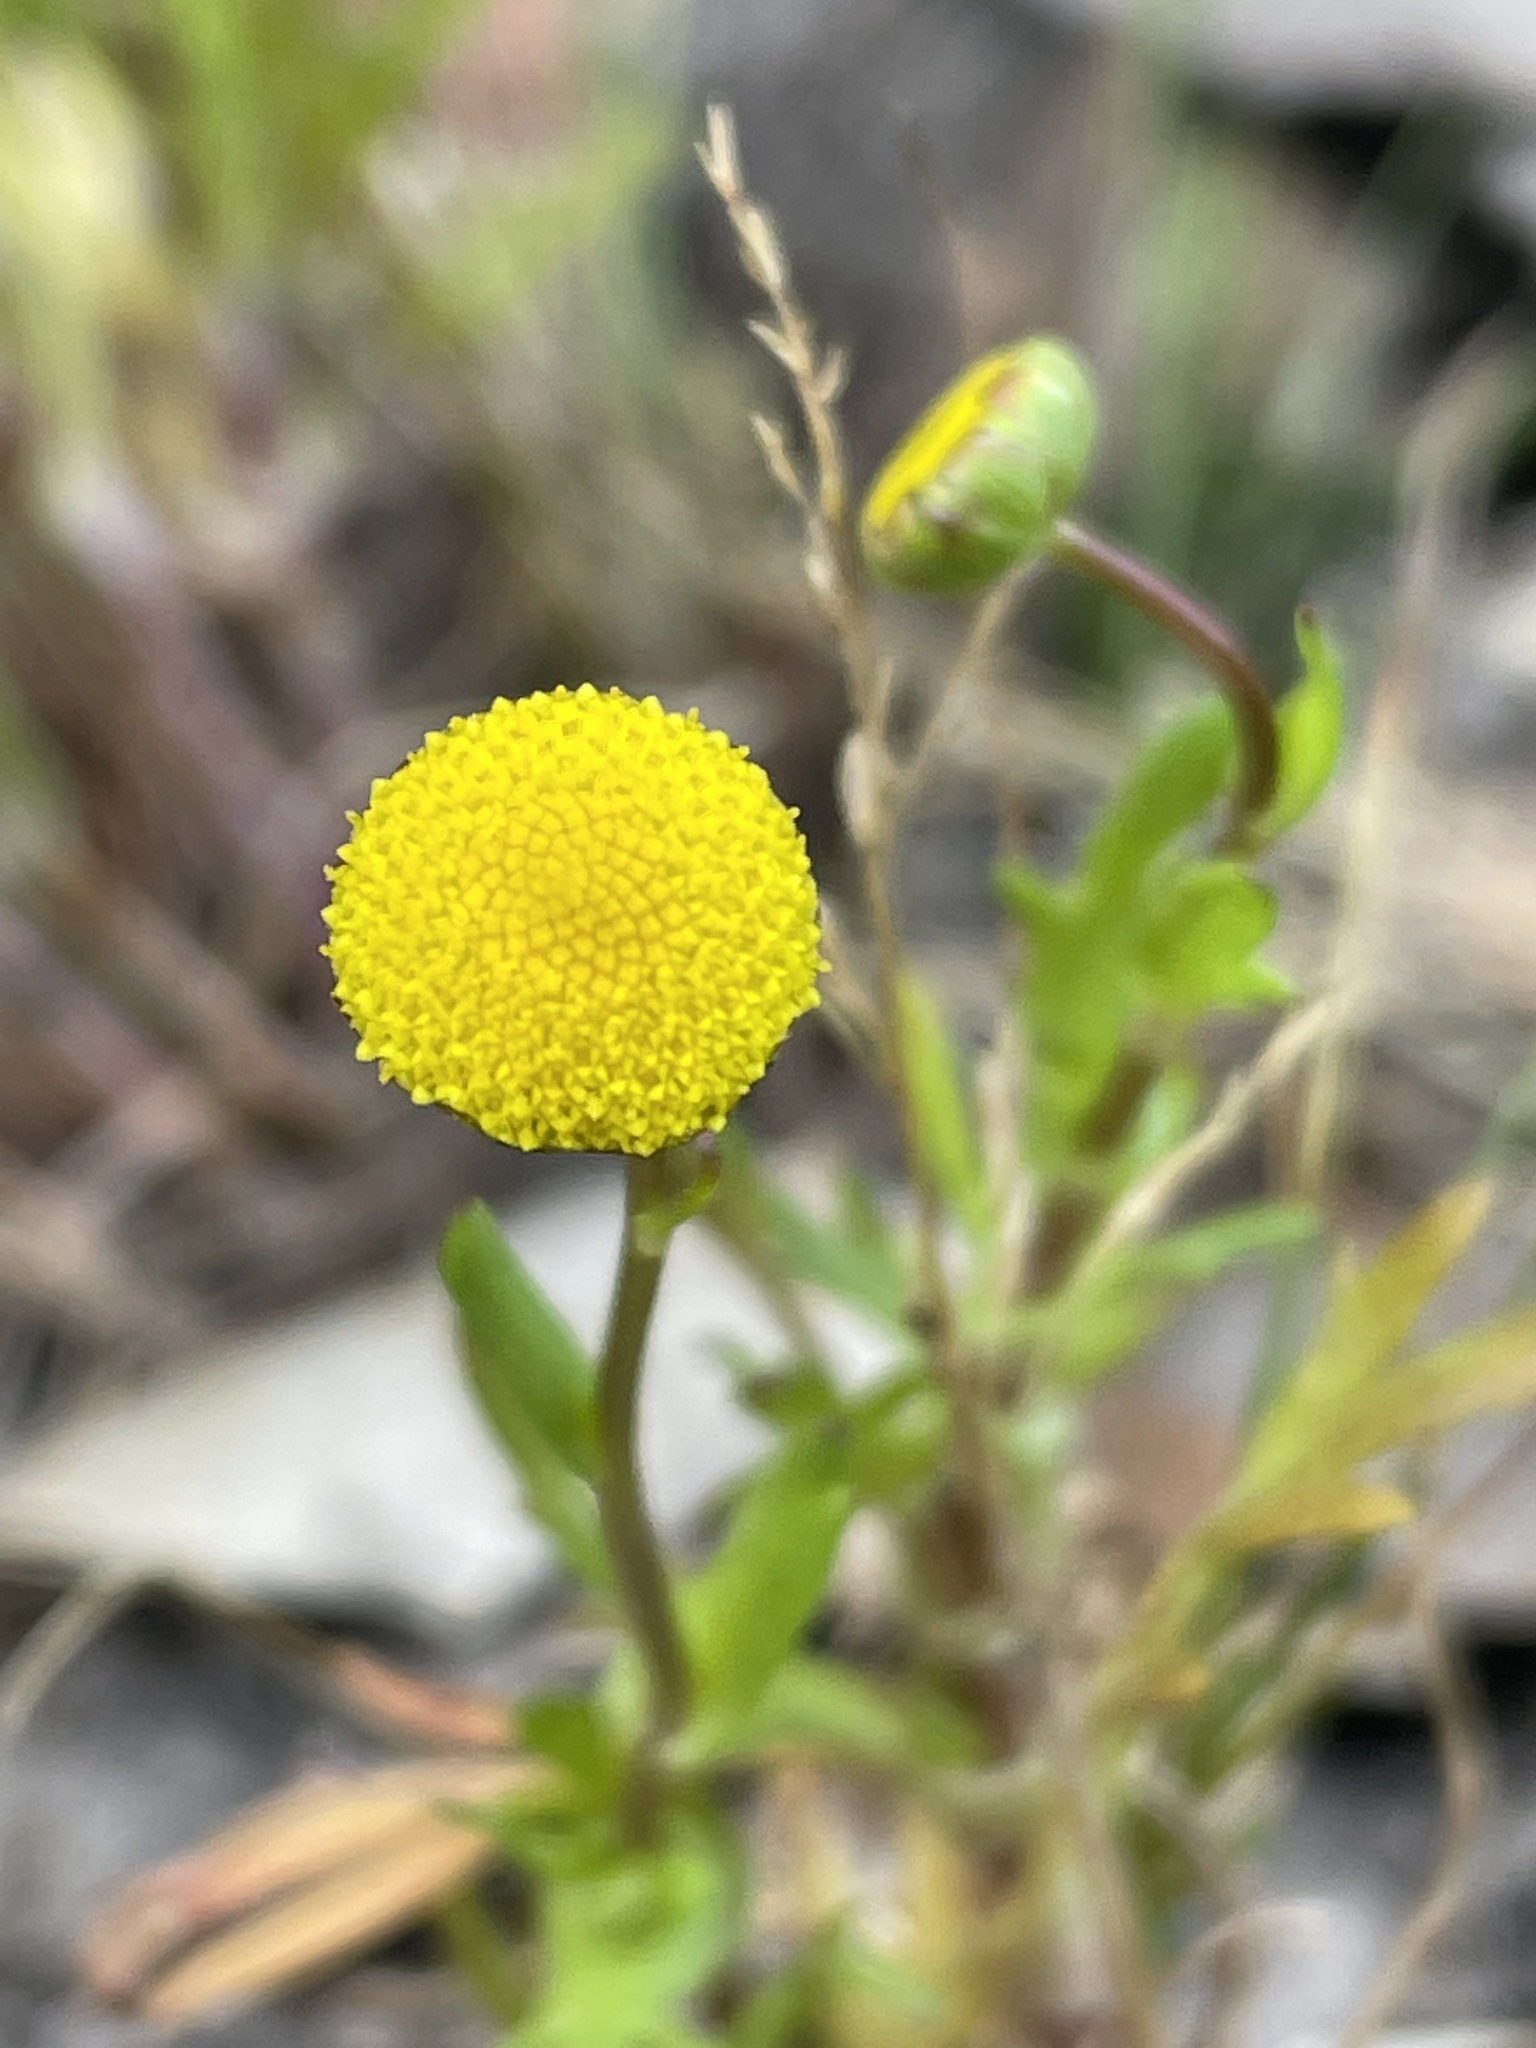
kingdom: Plantae
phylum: Tracheophyta
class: Magnoliopsida
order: Asterales
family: Asteraceae
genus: Cotula
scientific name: Cotula coronopifolia
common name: Buttonweed
